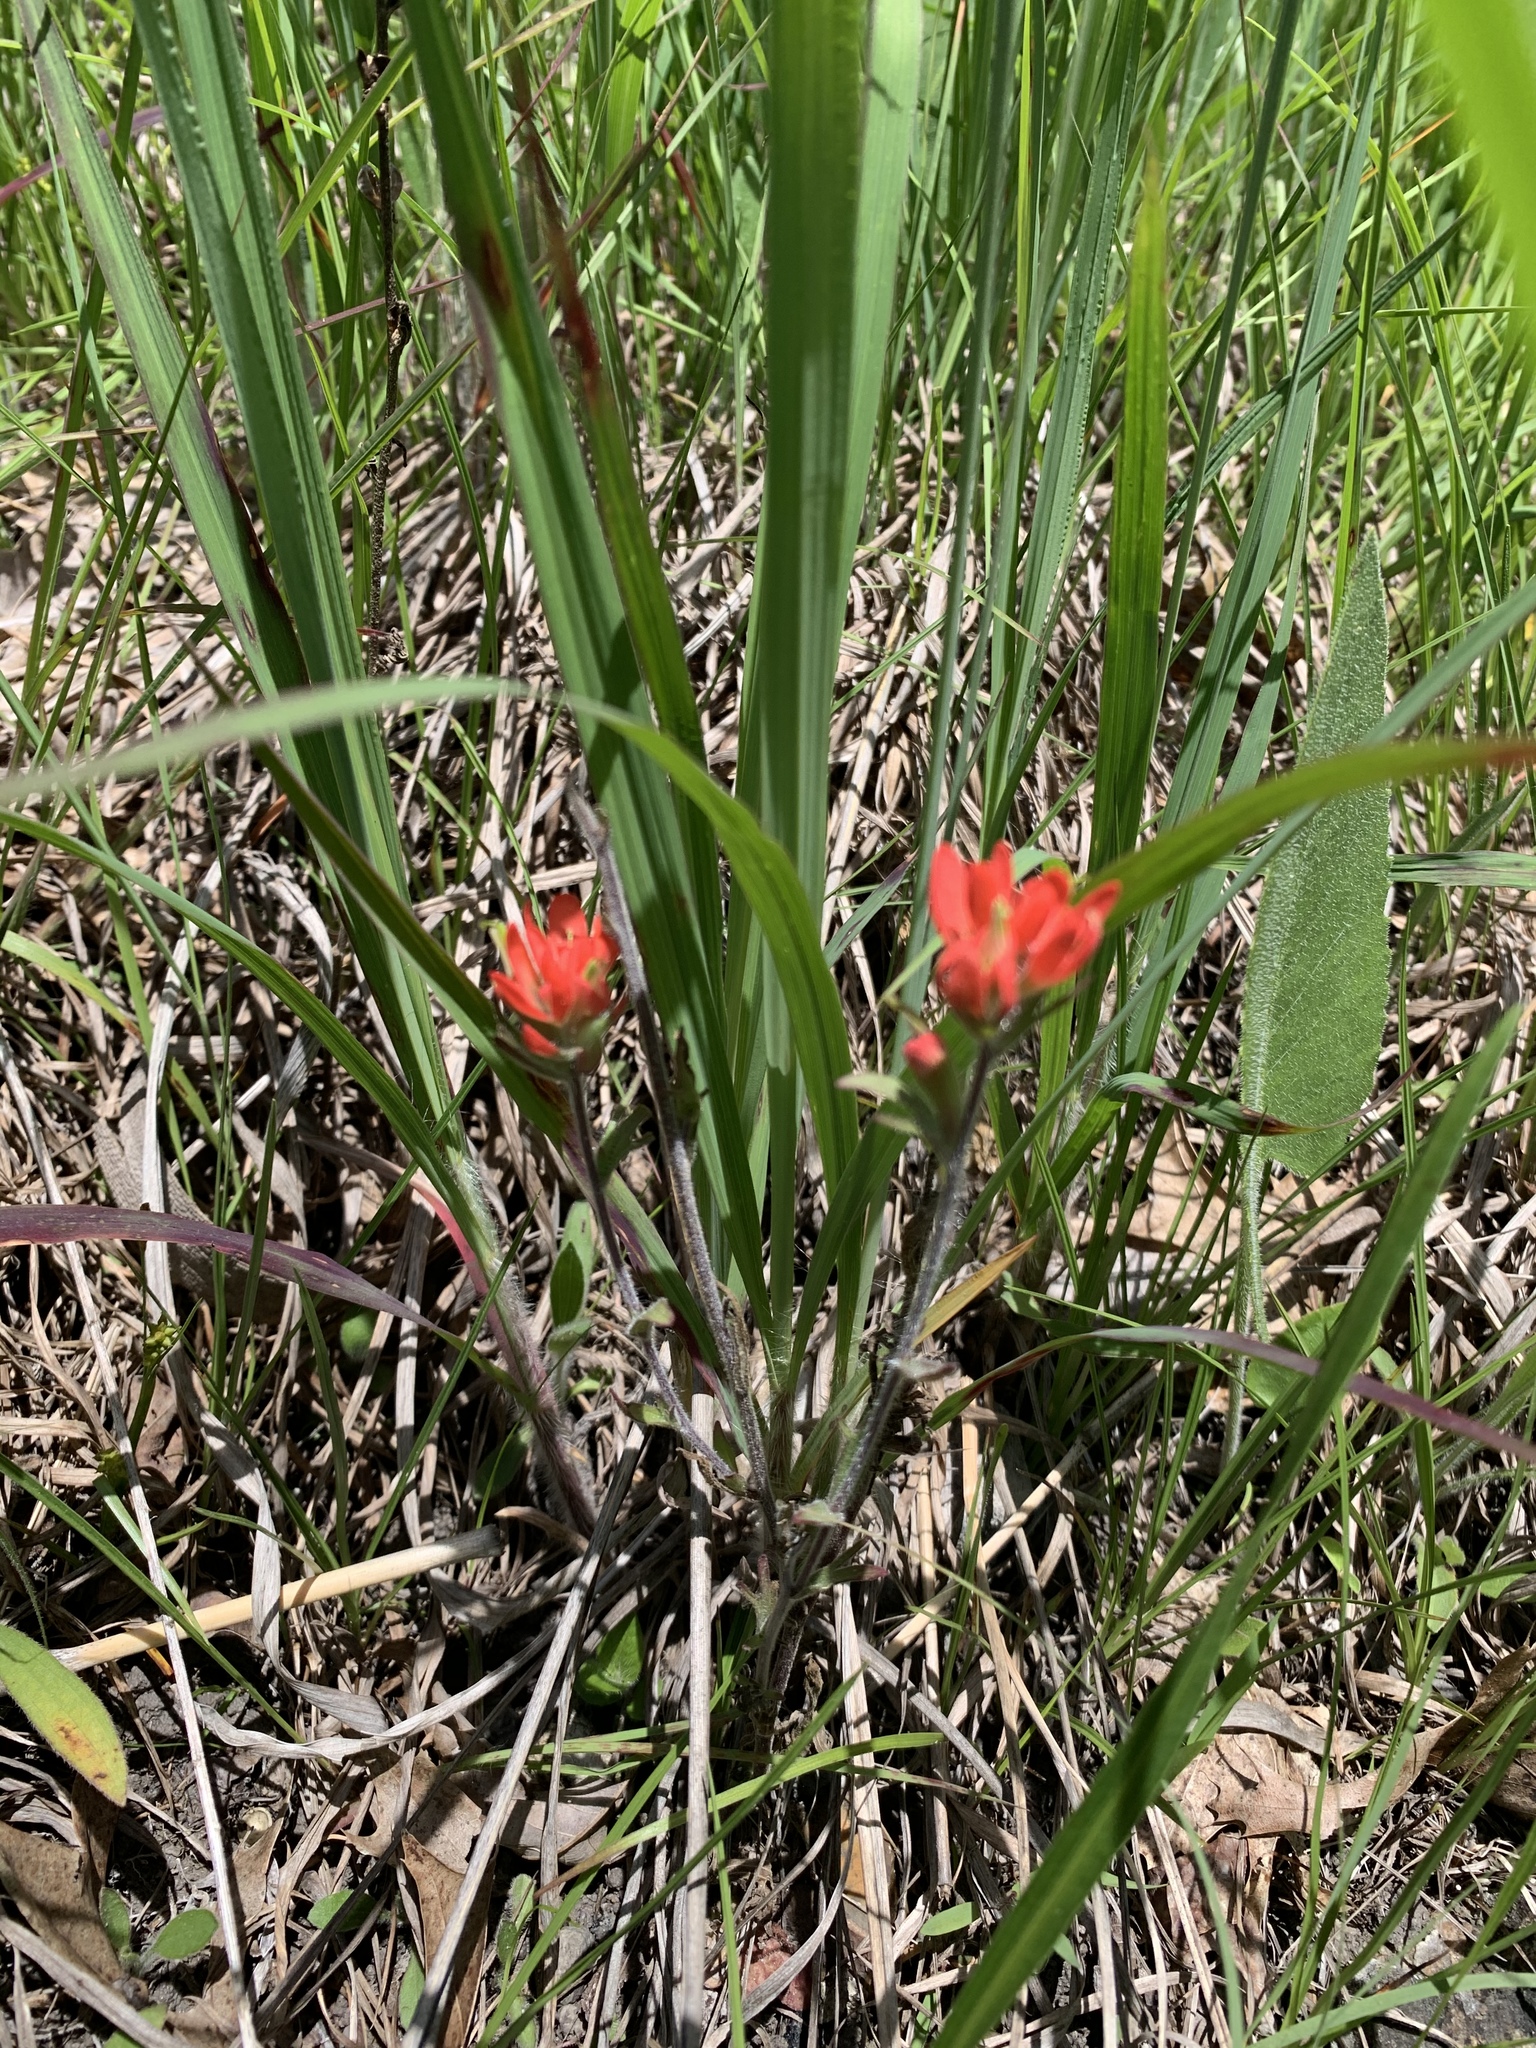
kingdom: Plantae
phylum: Tracheophyta
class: Magnoliopsida
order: Lamiales
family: Orobanchaceae
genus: Castilleja
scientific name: Castilleja coccinea
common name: Scarlet paintbrush
